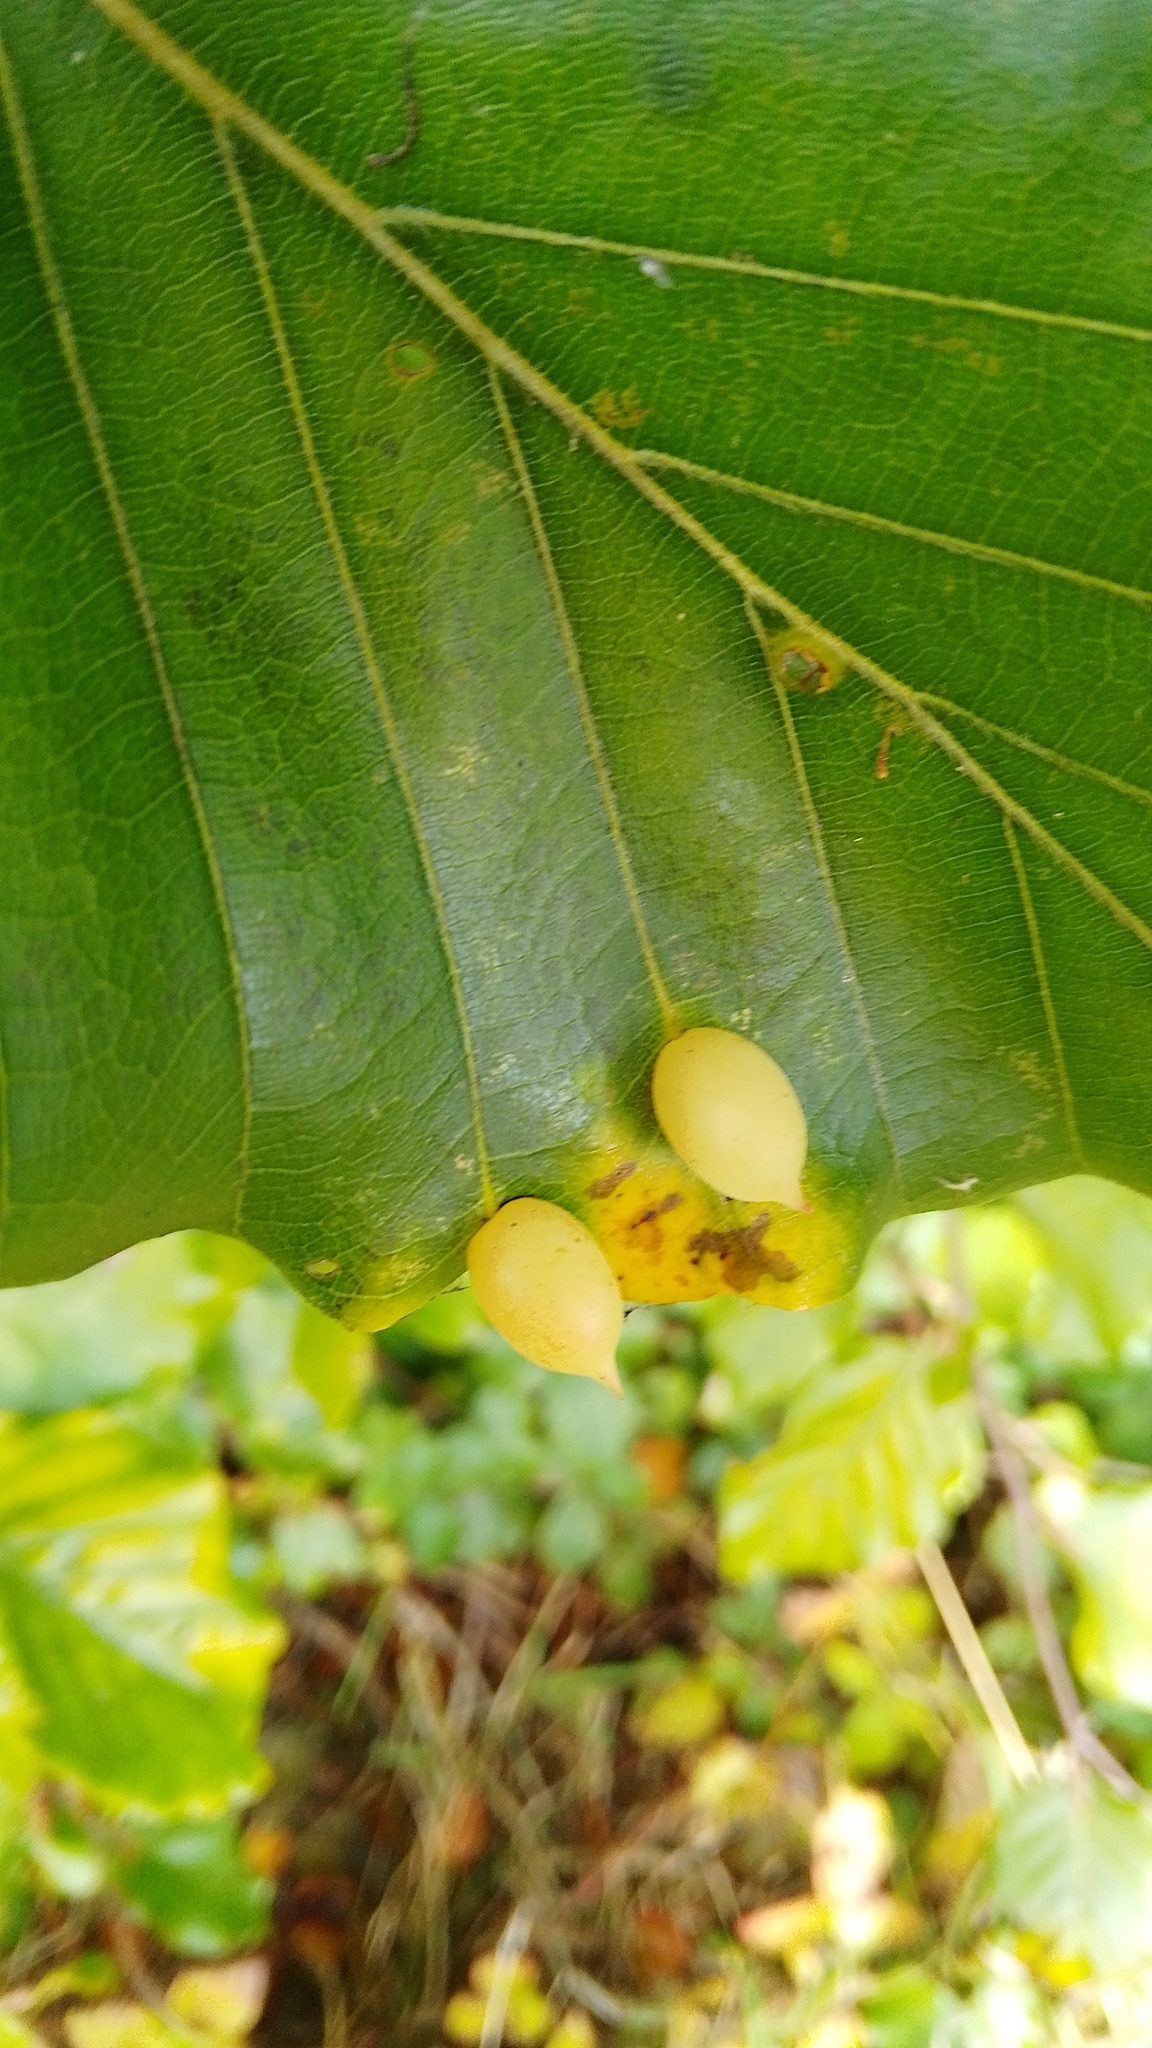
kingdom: Animalia
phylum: Arthropoda
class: Insecta
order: Diptera
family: Cecidomyiidae
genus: Mikiola
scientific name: Mikiola fagi
